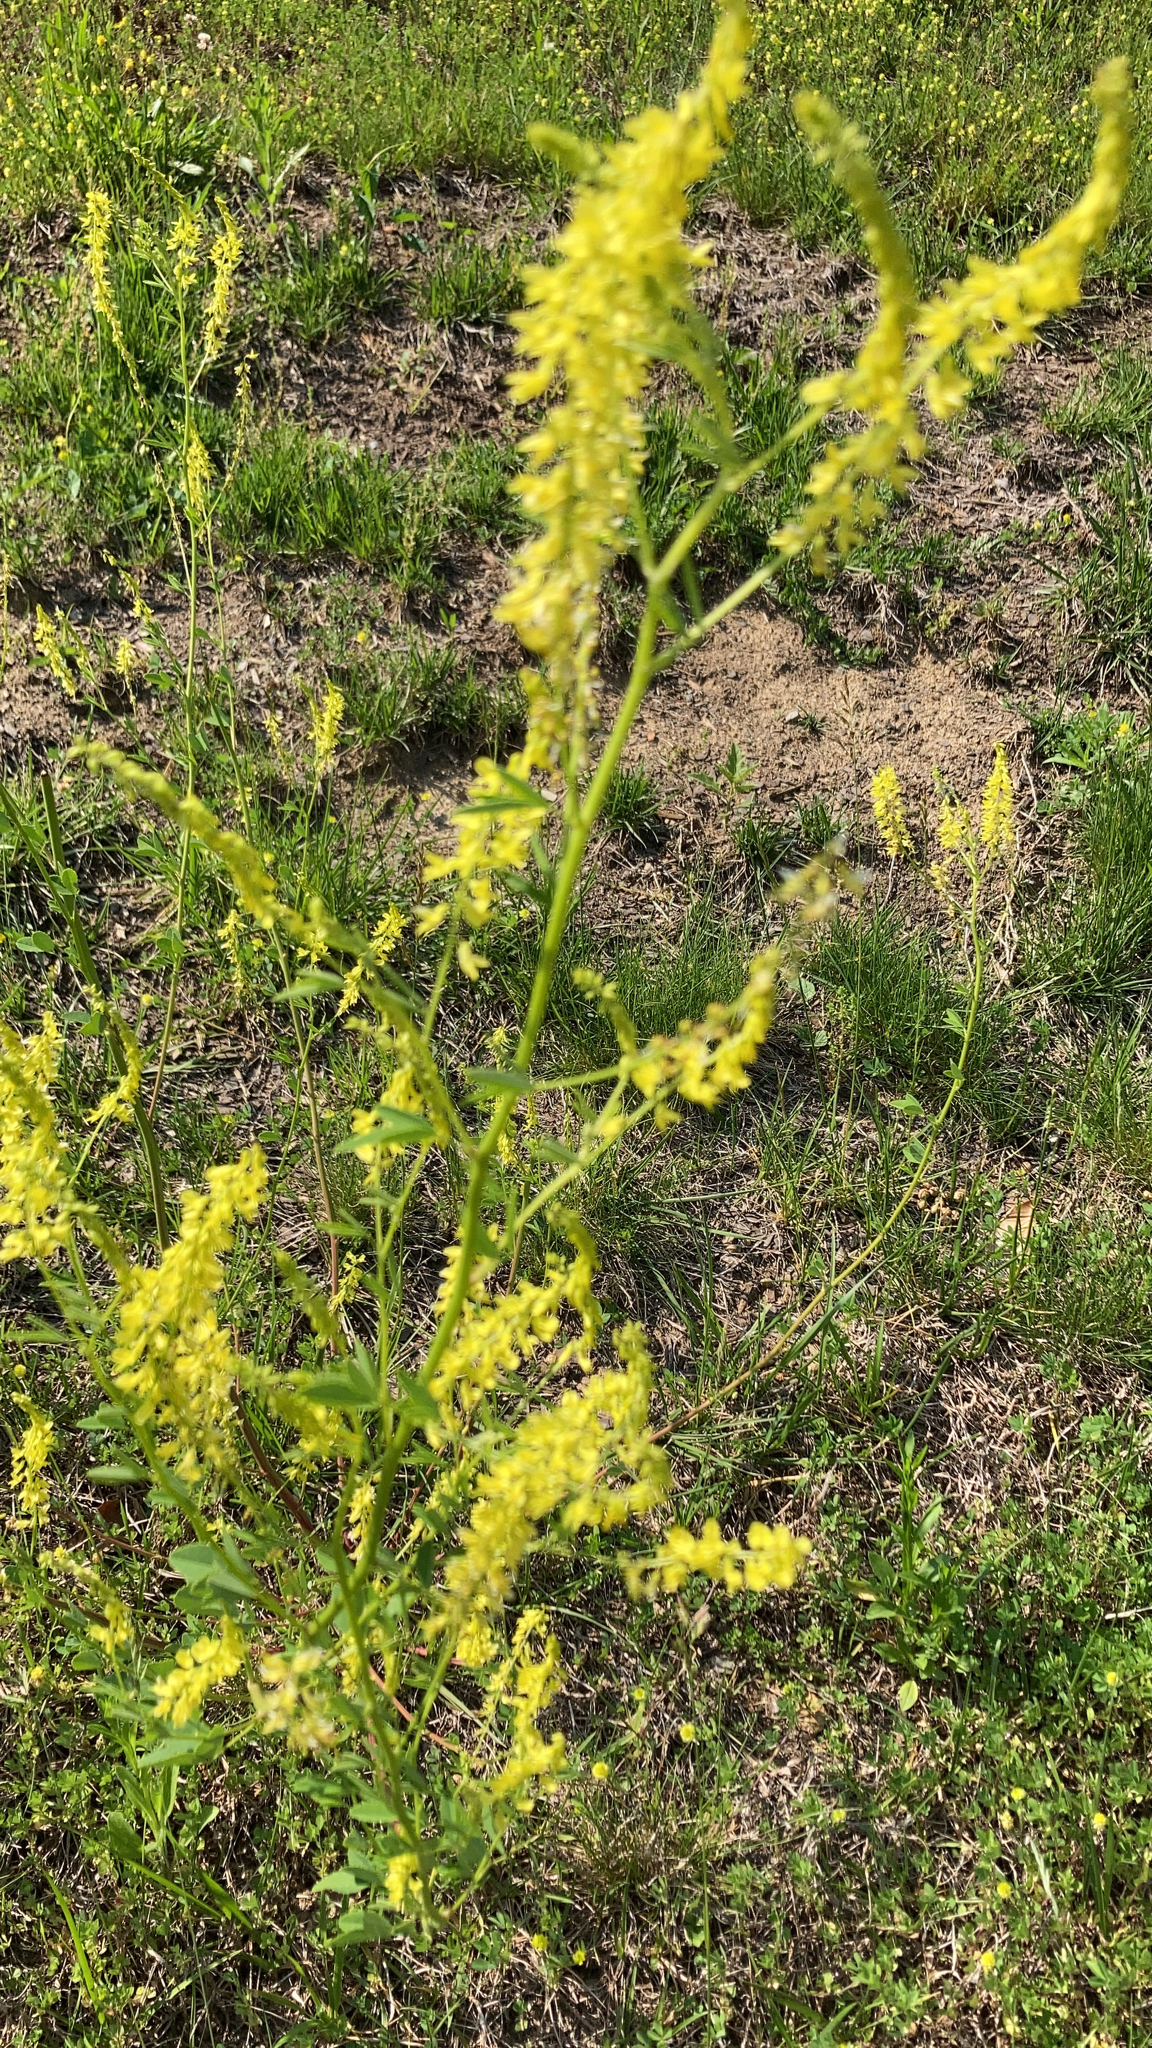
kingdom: Plantae
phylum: Tracheophyta
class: Magnoliopsida
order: Fabales
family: Fabaceae
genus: Melilotus
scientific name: Melilotus officinalis
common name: Sweetclover
